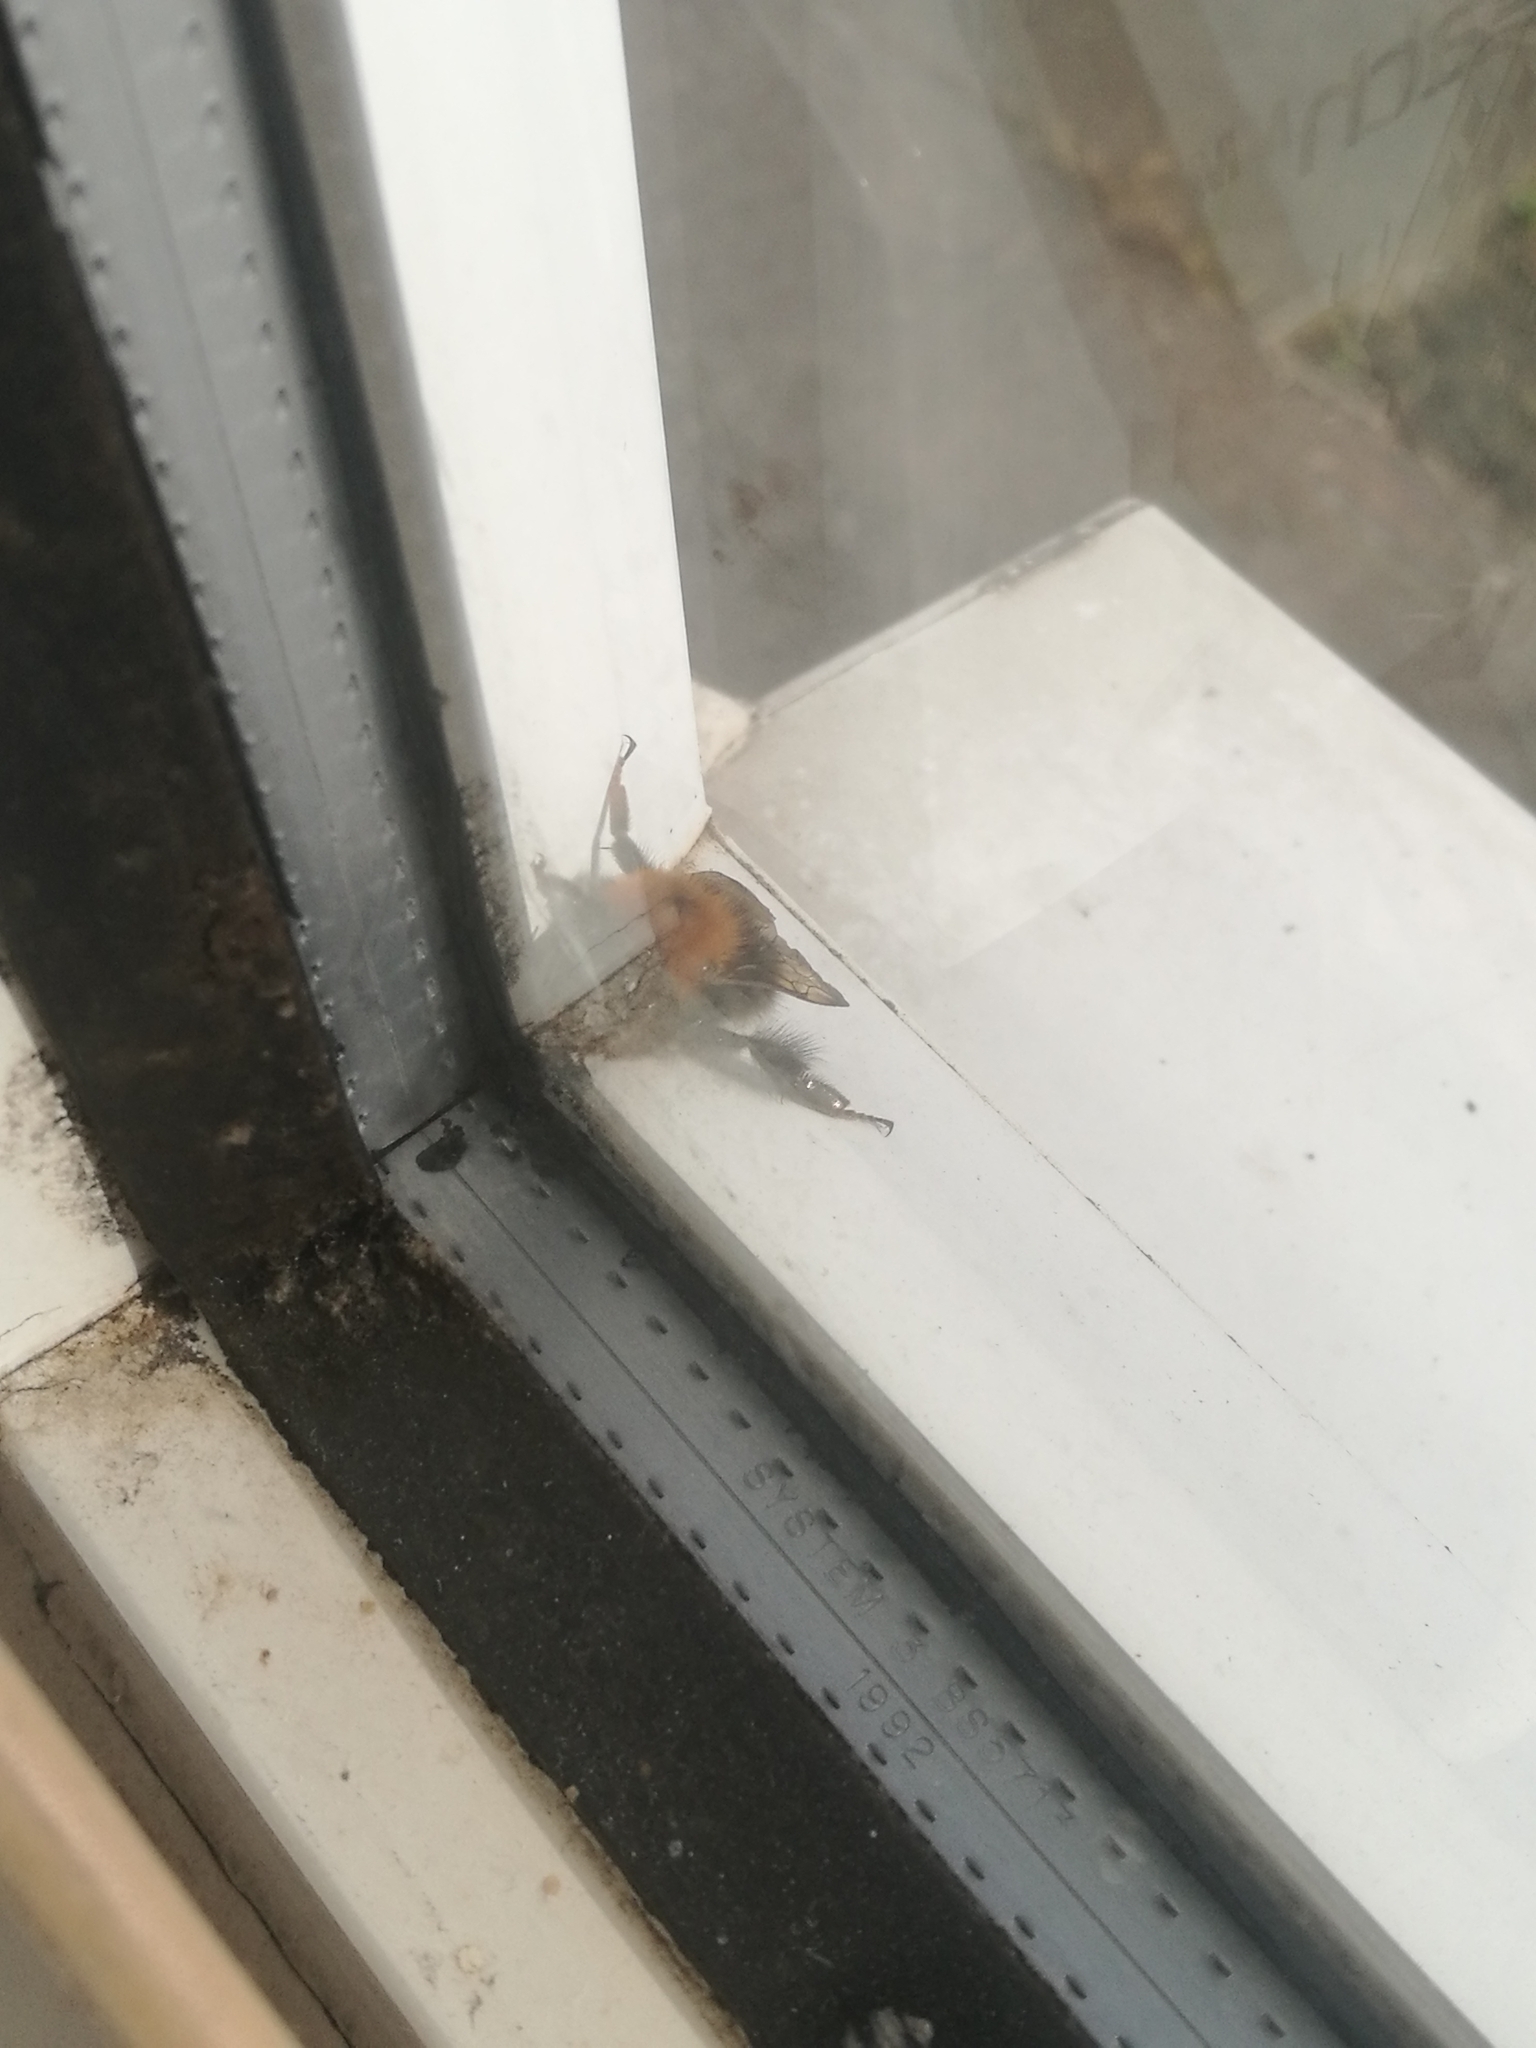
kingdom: Animalia
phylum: Arthropoda
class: Insecta
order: Hymenoptera
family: Apidae
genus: Bombus
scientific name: Bombus hypnorum
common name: New garden bumblebee
